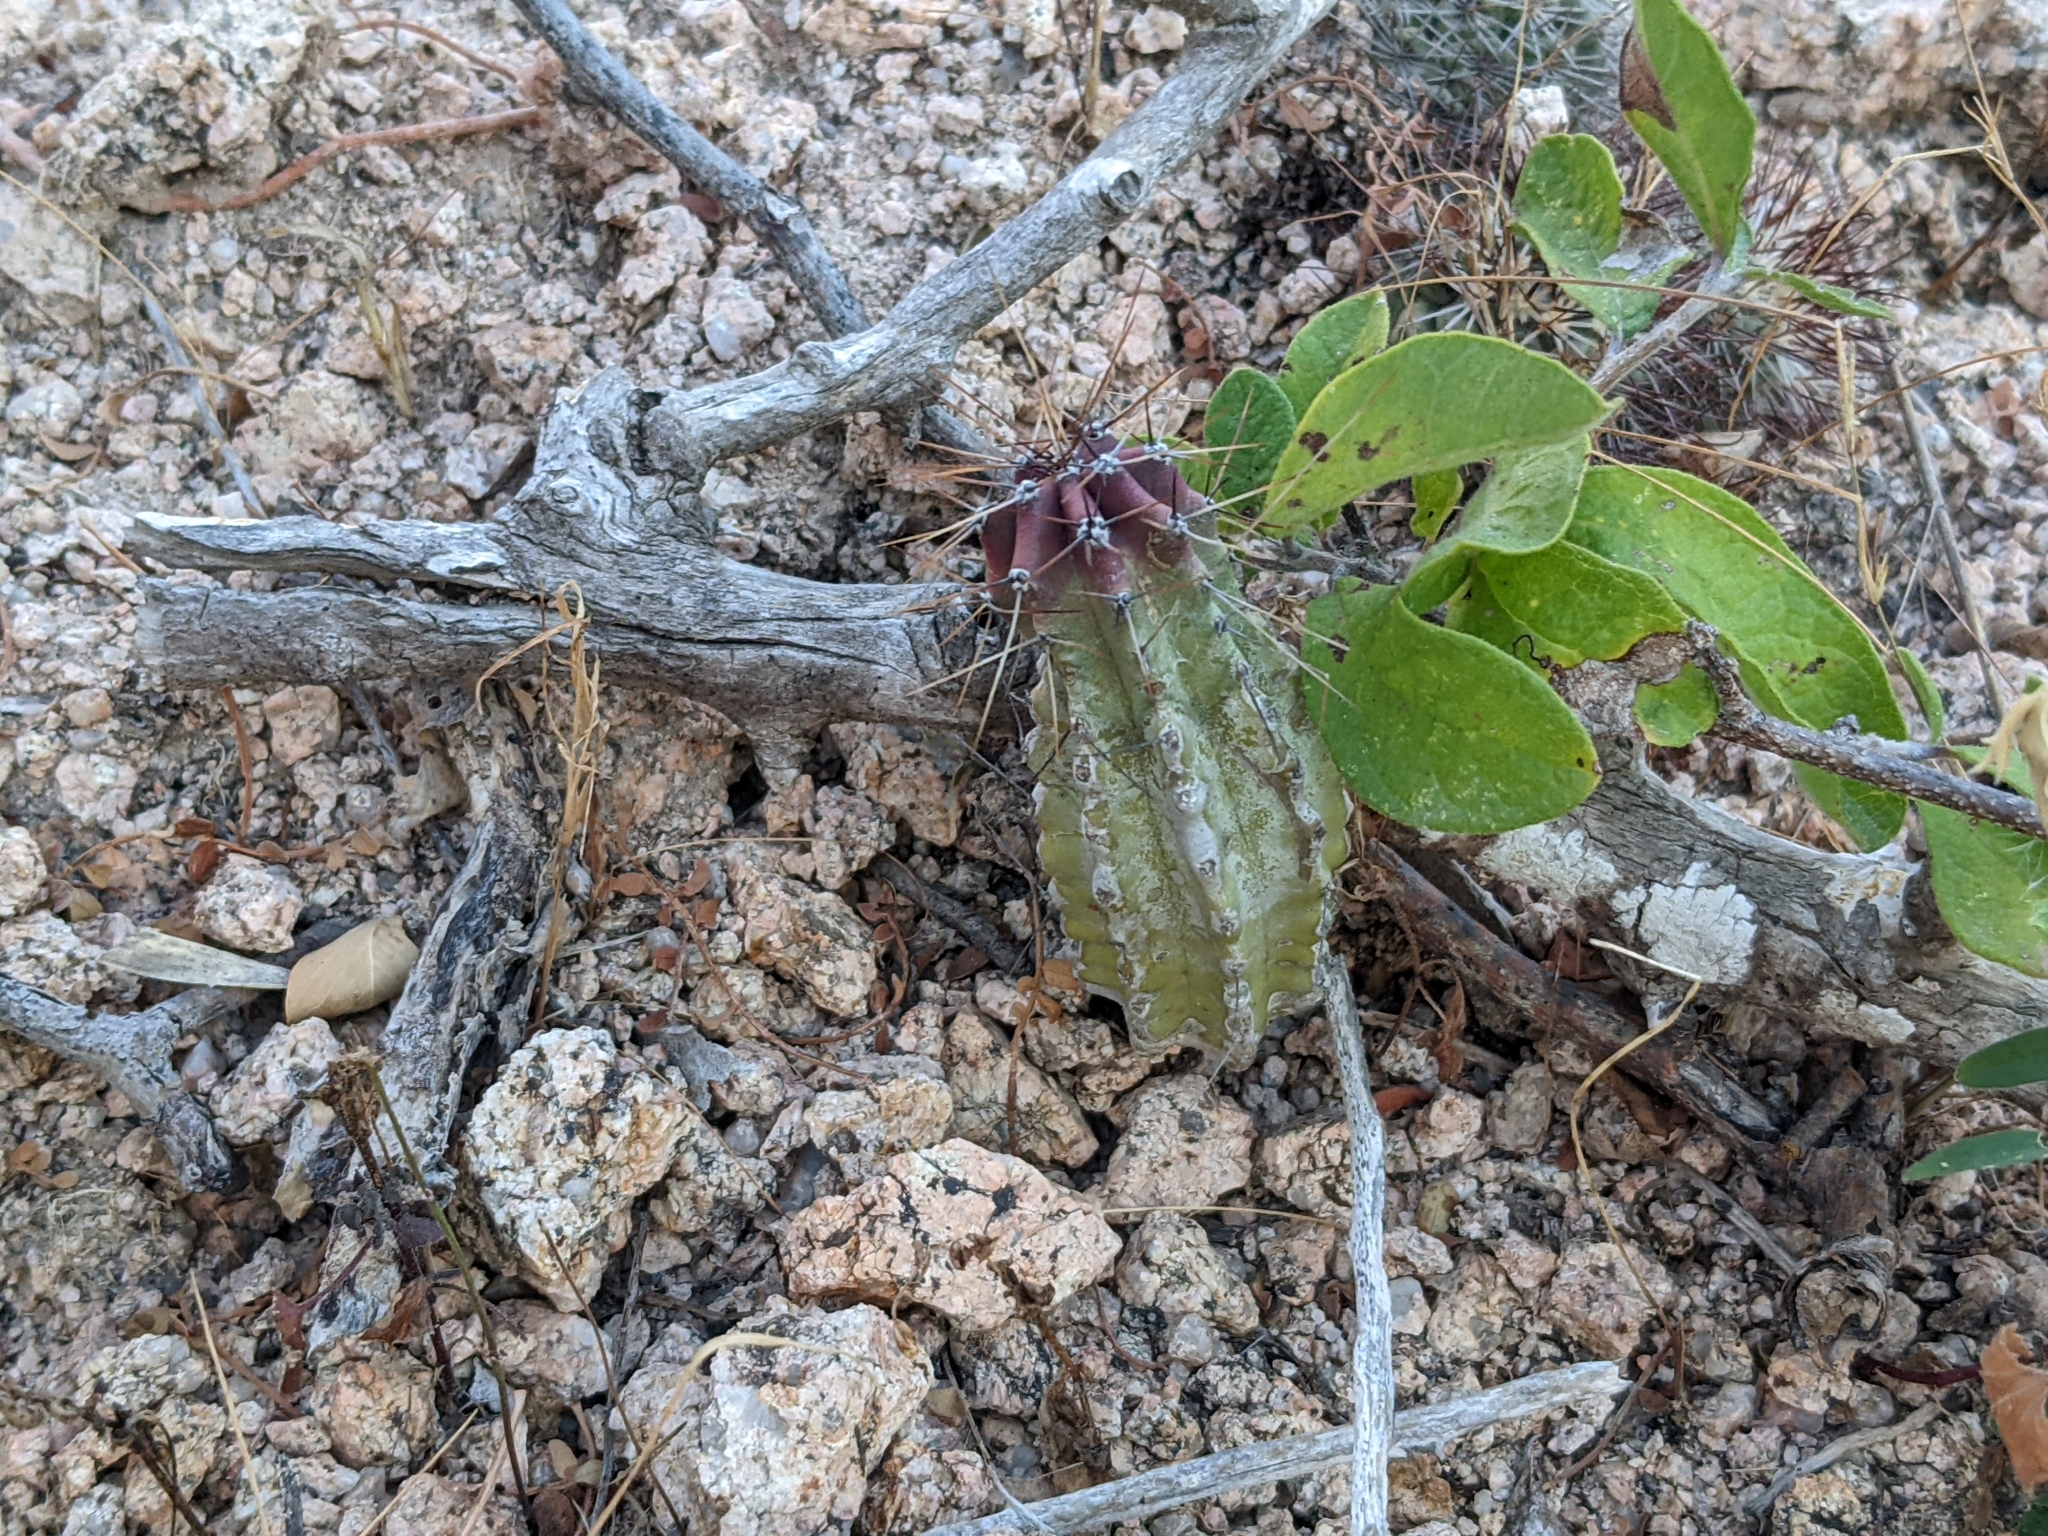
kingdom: Plantae
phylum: Tracheophyta
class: Magnoliopsida
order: Caryophyllales
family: Cactaceae
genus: Pachycereus
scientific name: Pachycereus schottii
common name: Senita cactus
